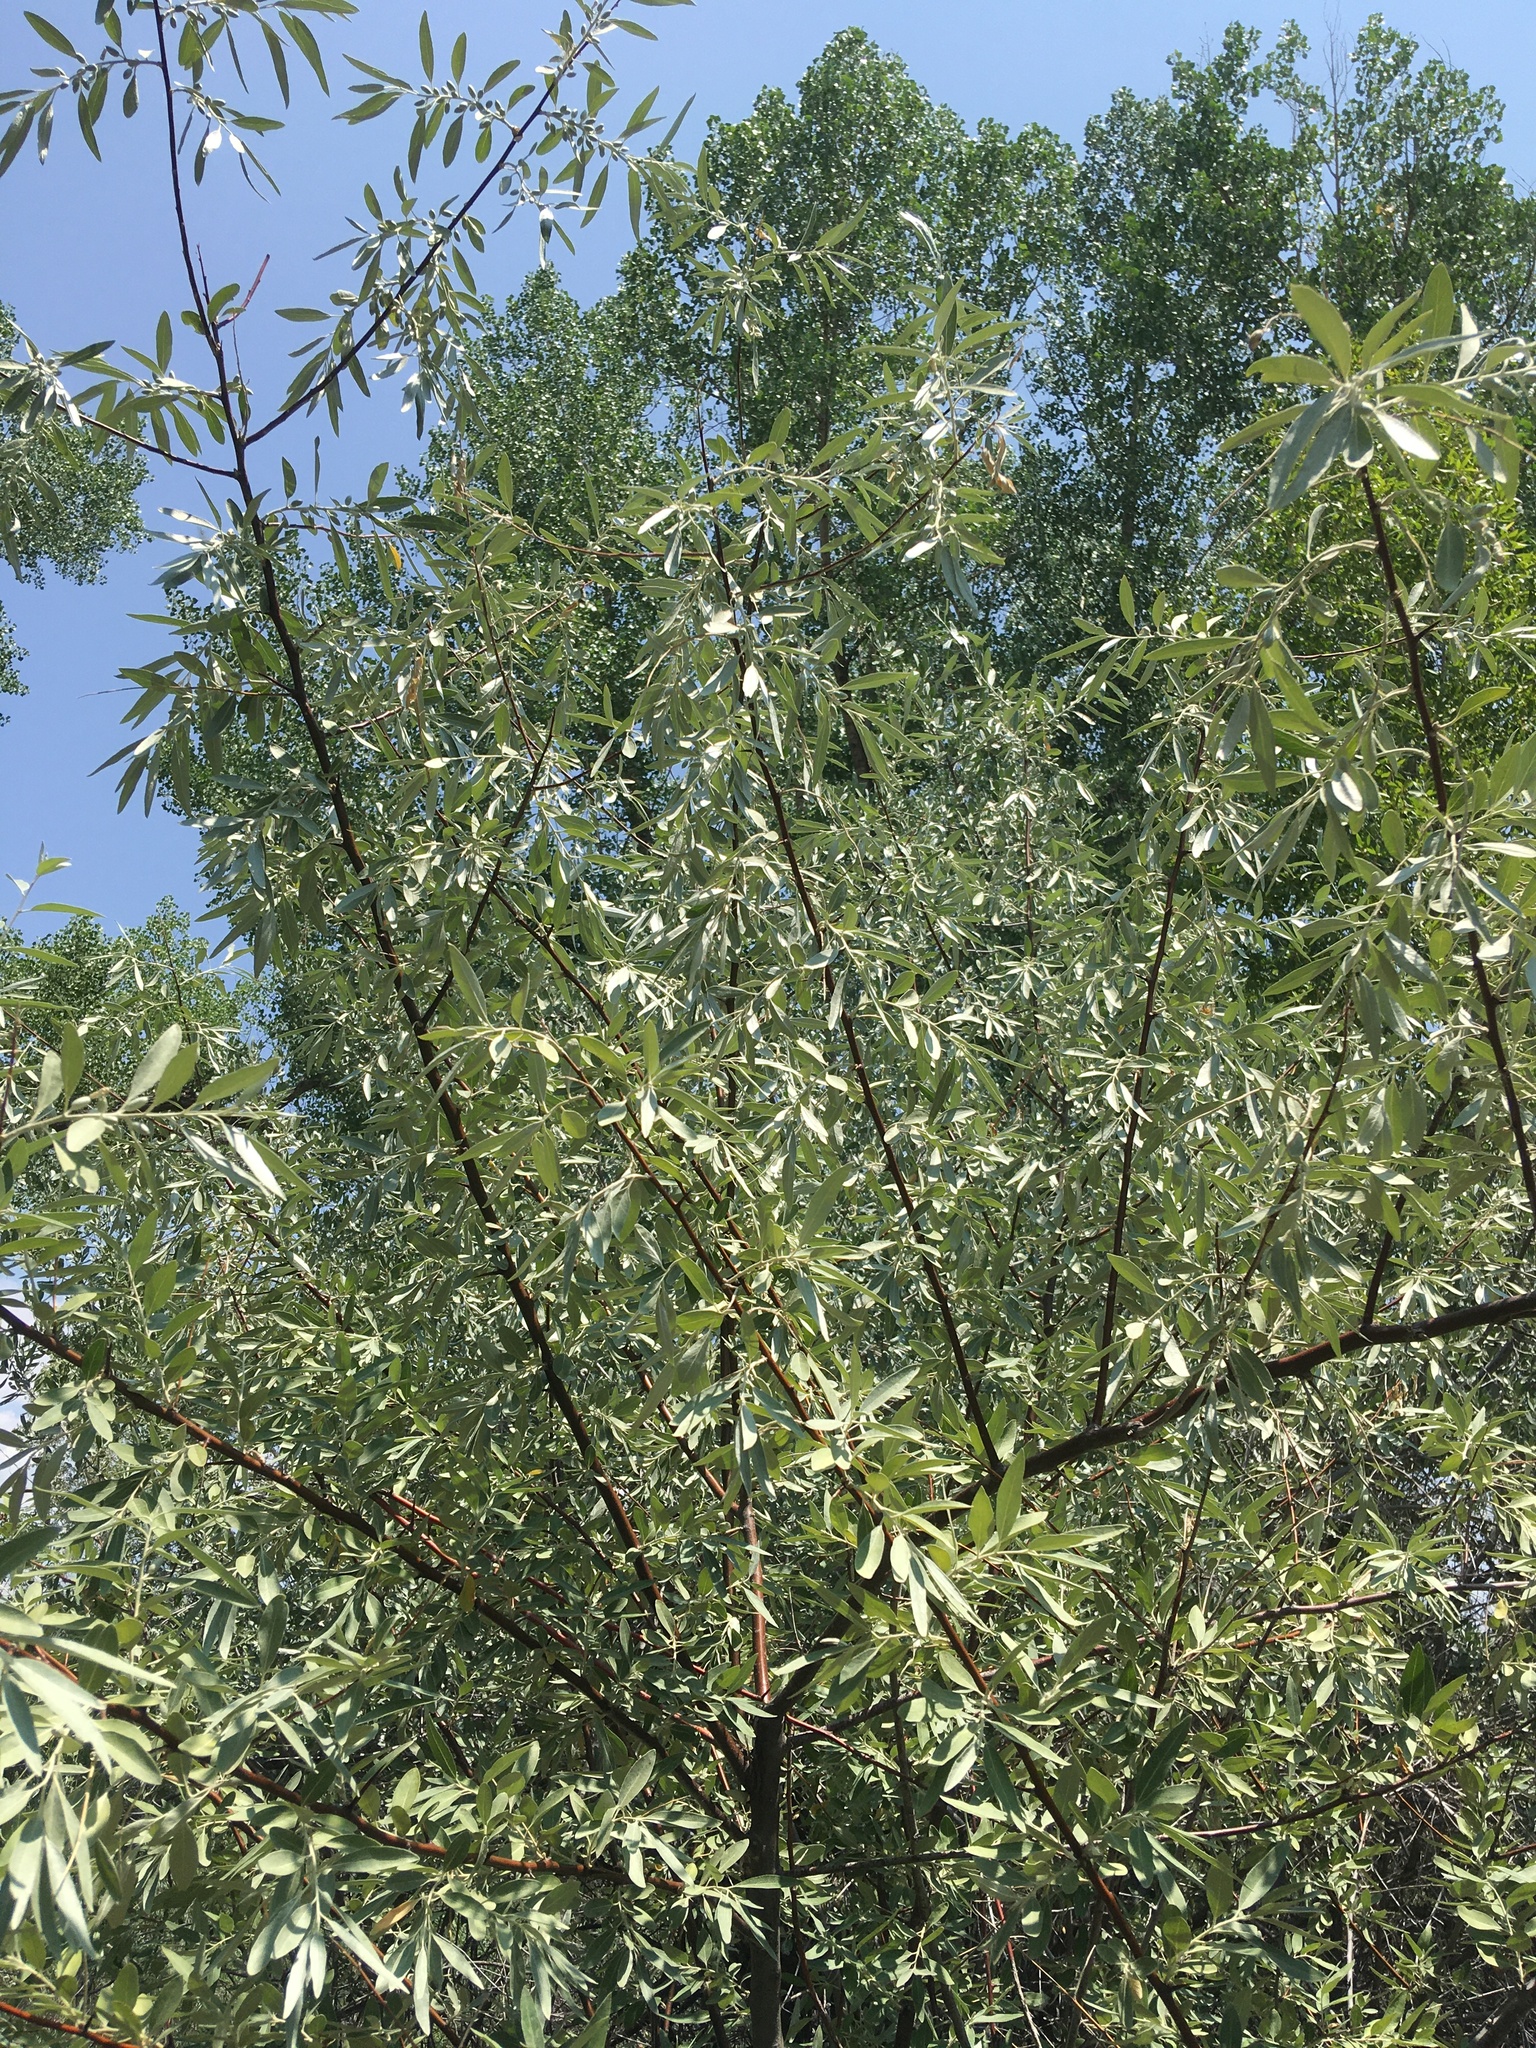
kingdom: Plantae
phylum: Tracheophyta
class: Magnoliopsida
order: Rosales
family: Elaeagnaceae
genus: Elaeagnus
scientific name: Elaeagnus angustifolia
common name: Russian olive
